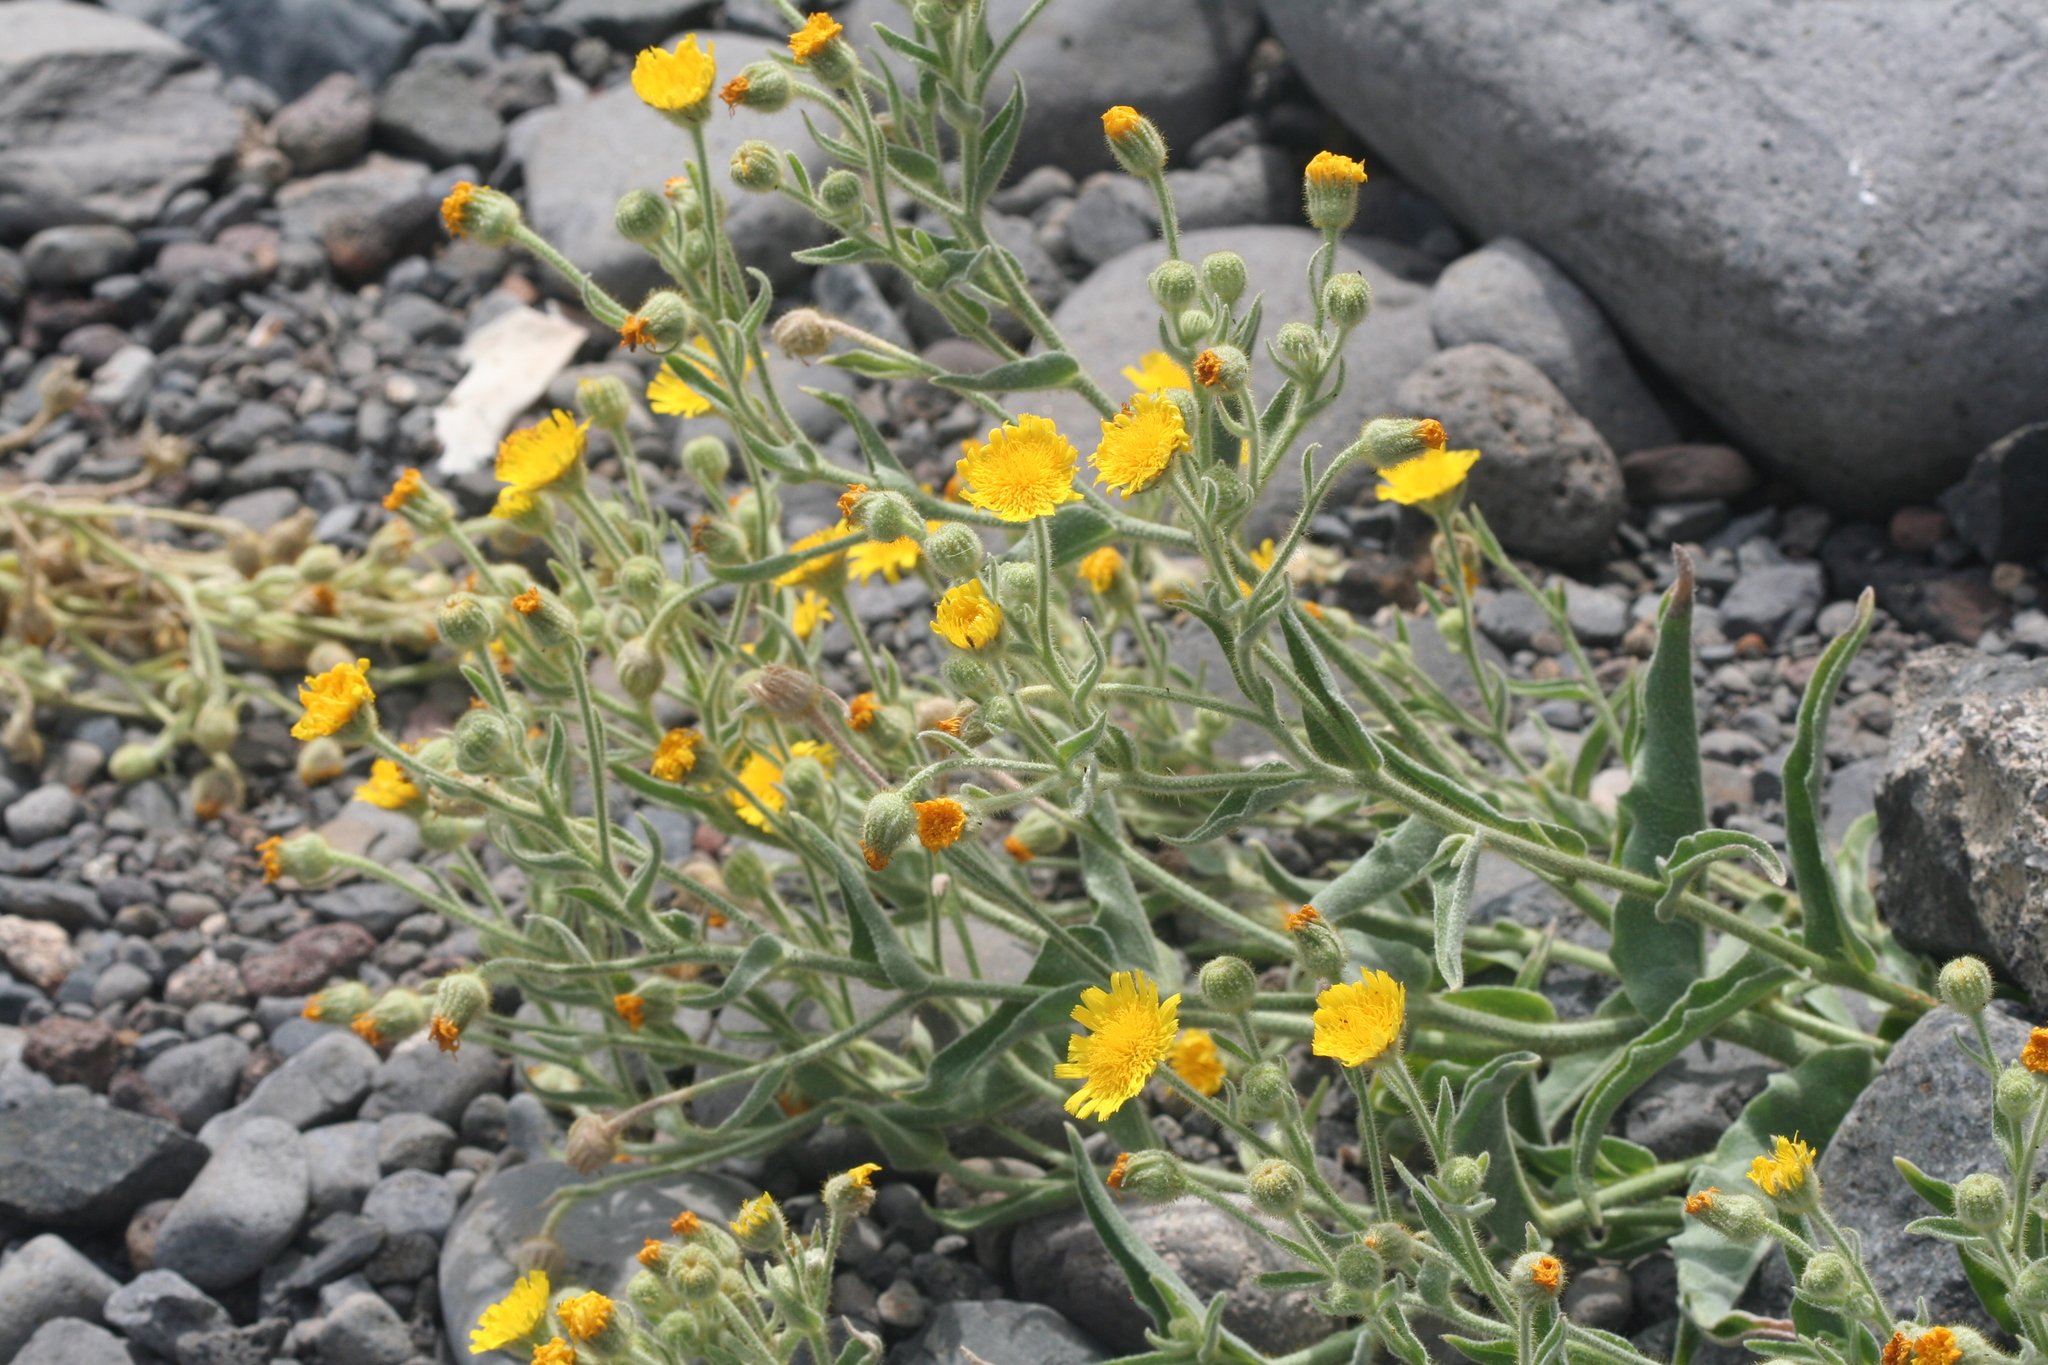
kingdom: Plantae
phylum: Tracheophyta
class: Magnoliopsida
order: Asterales
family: Asteraceae
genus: Andryala
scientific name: Andryala glandulosa
